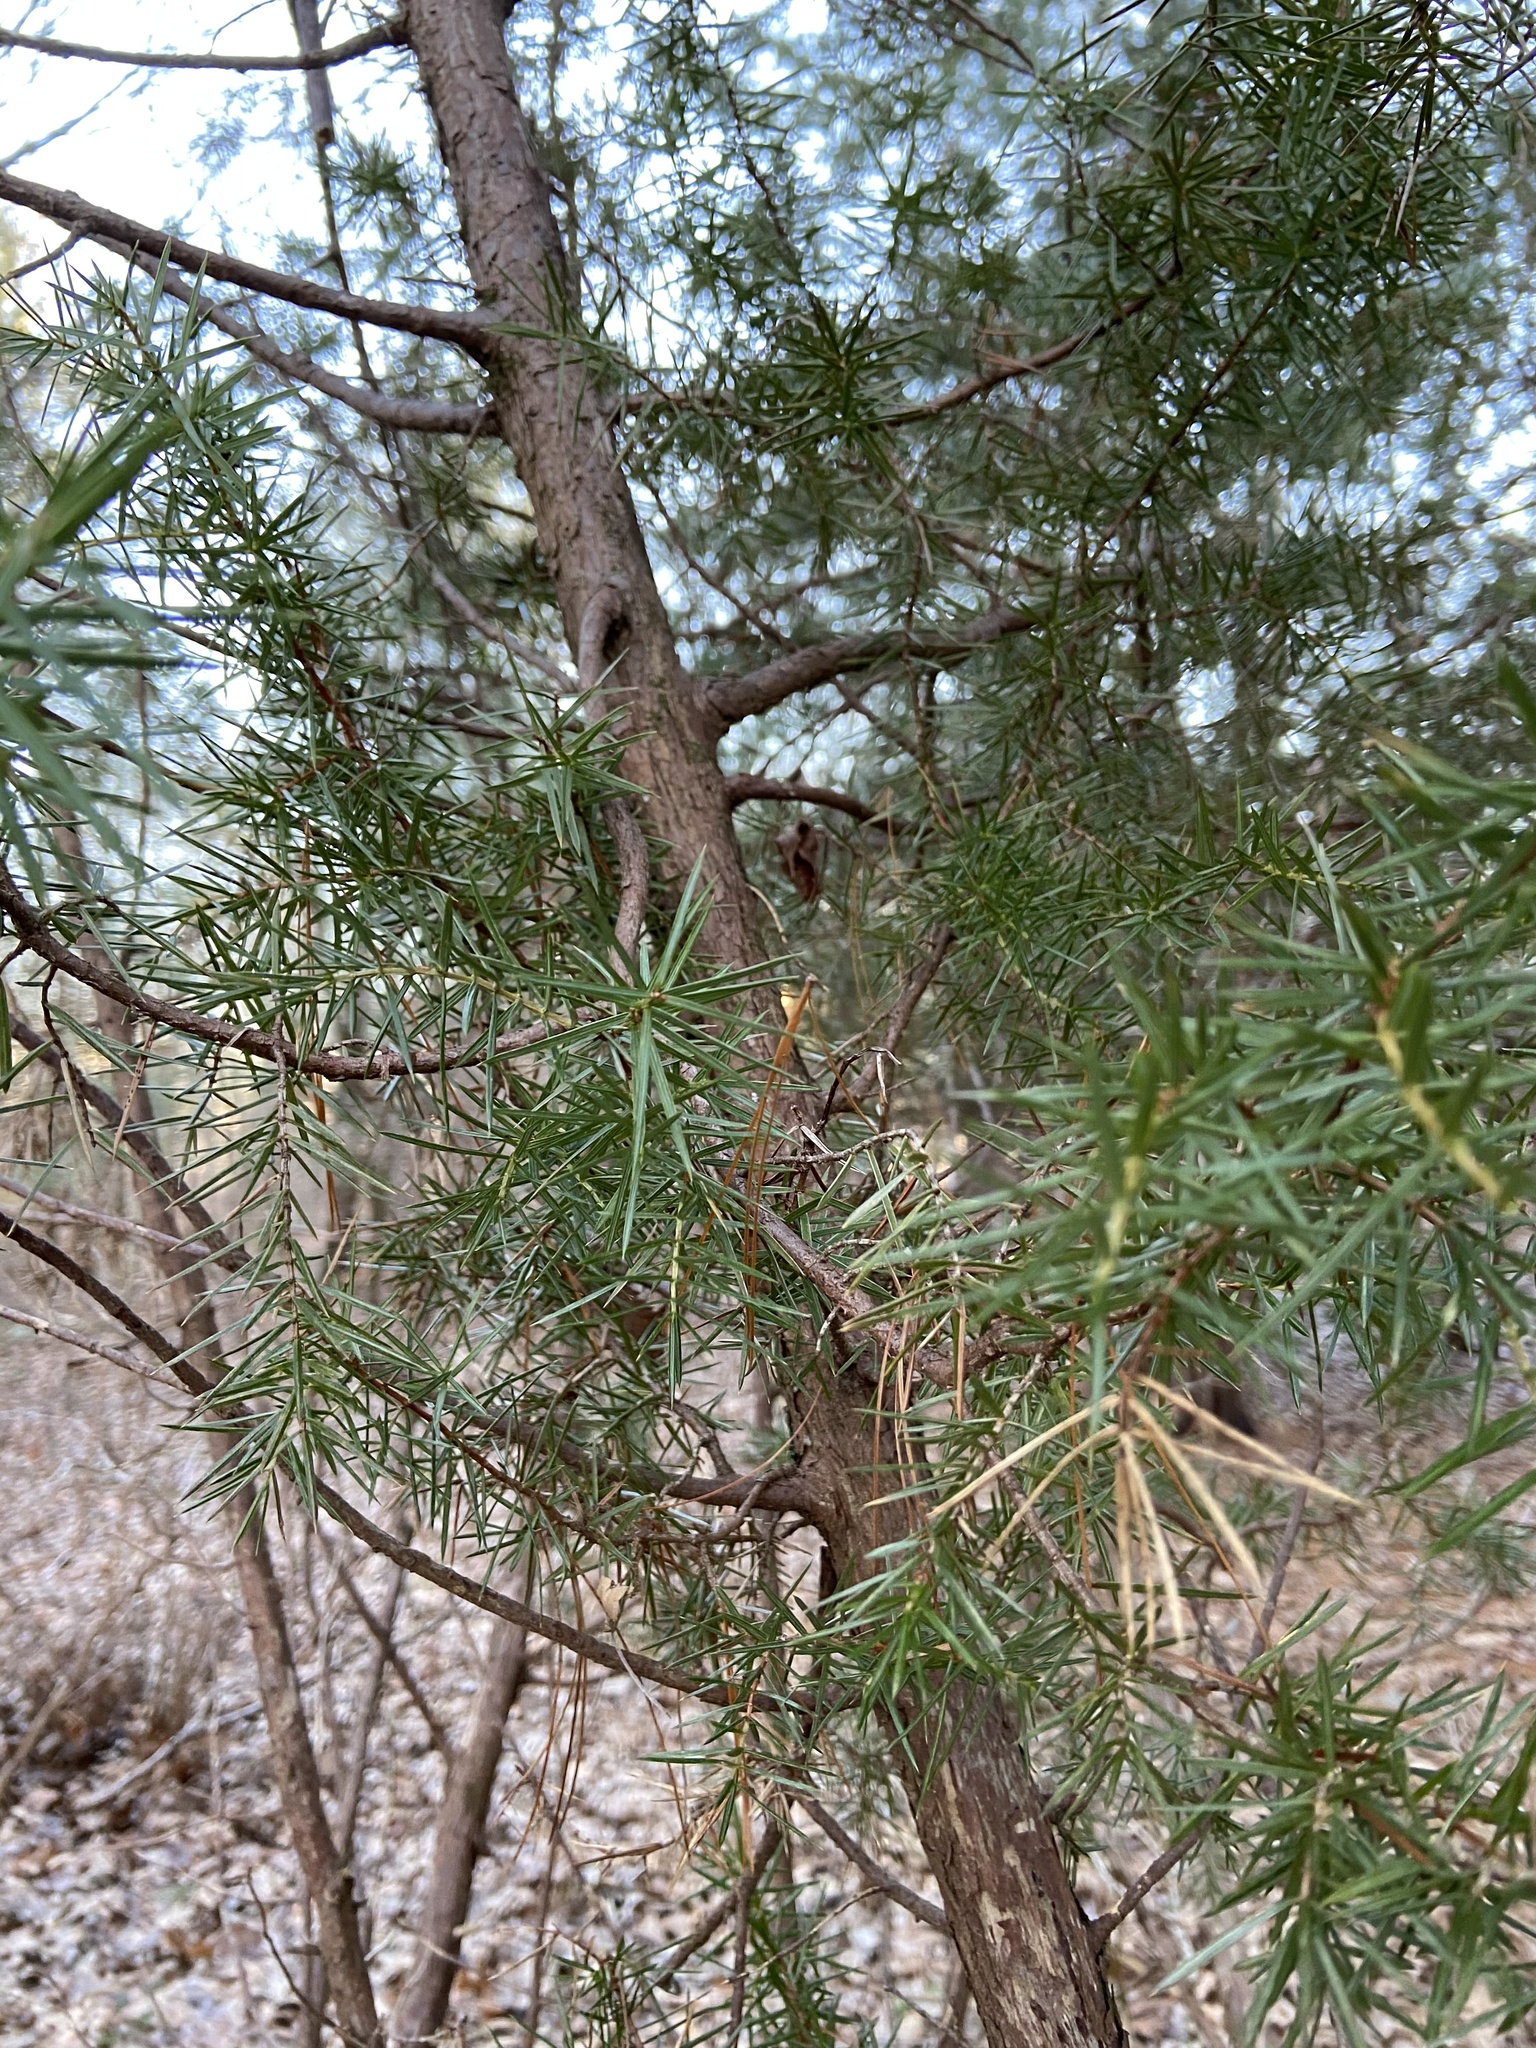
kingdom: Plantae
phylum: Tracheophyta
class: Pinopsida
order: Pinales
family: Cupressaceae
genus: Juniperus
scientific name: Juniperus communis
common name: Common juniper
